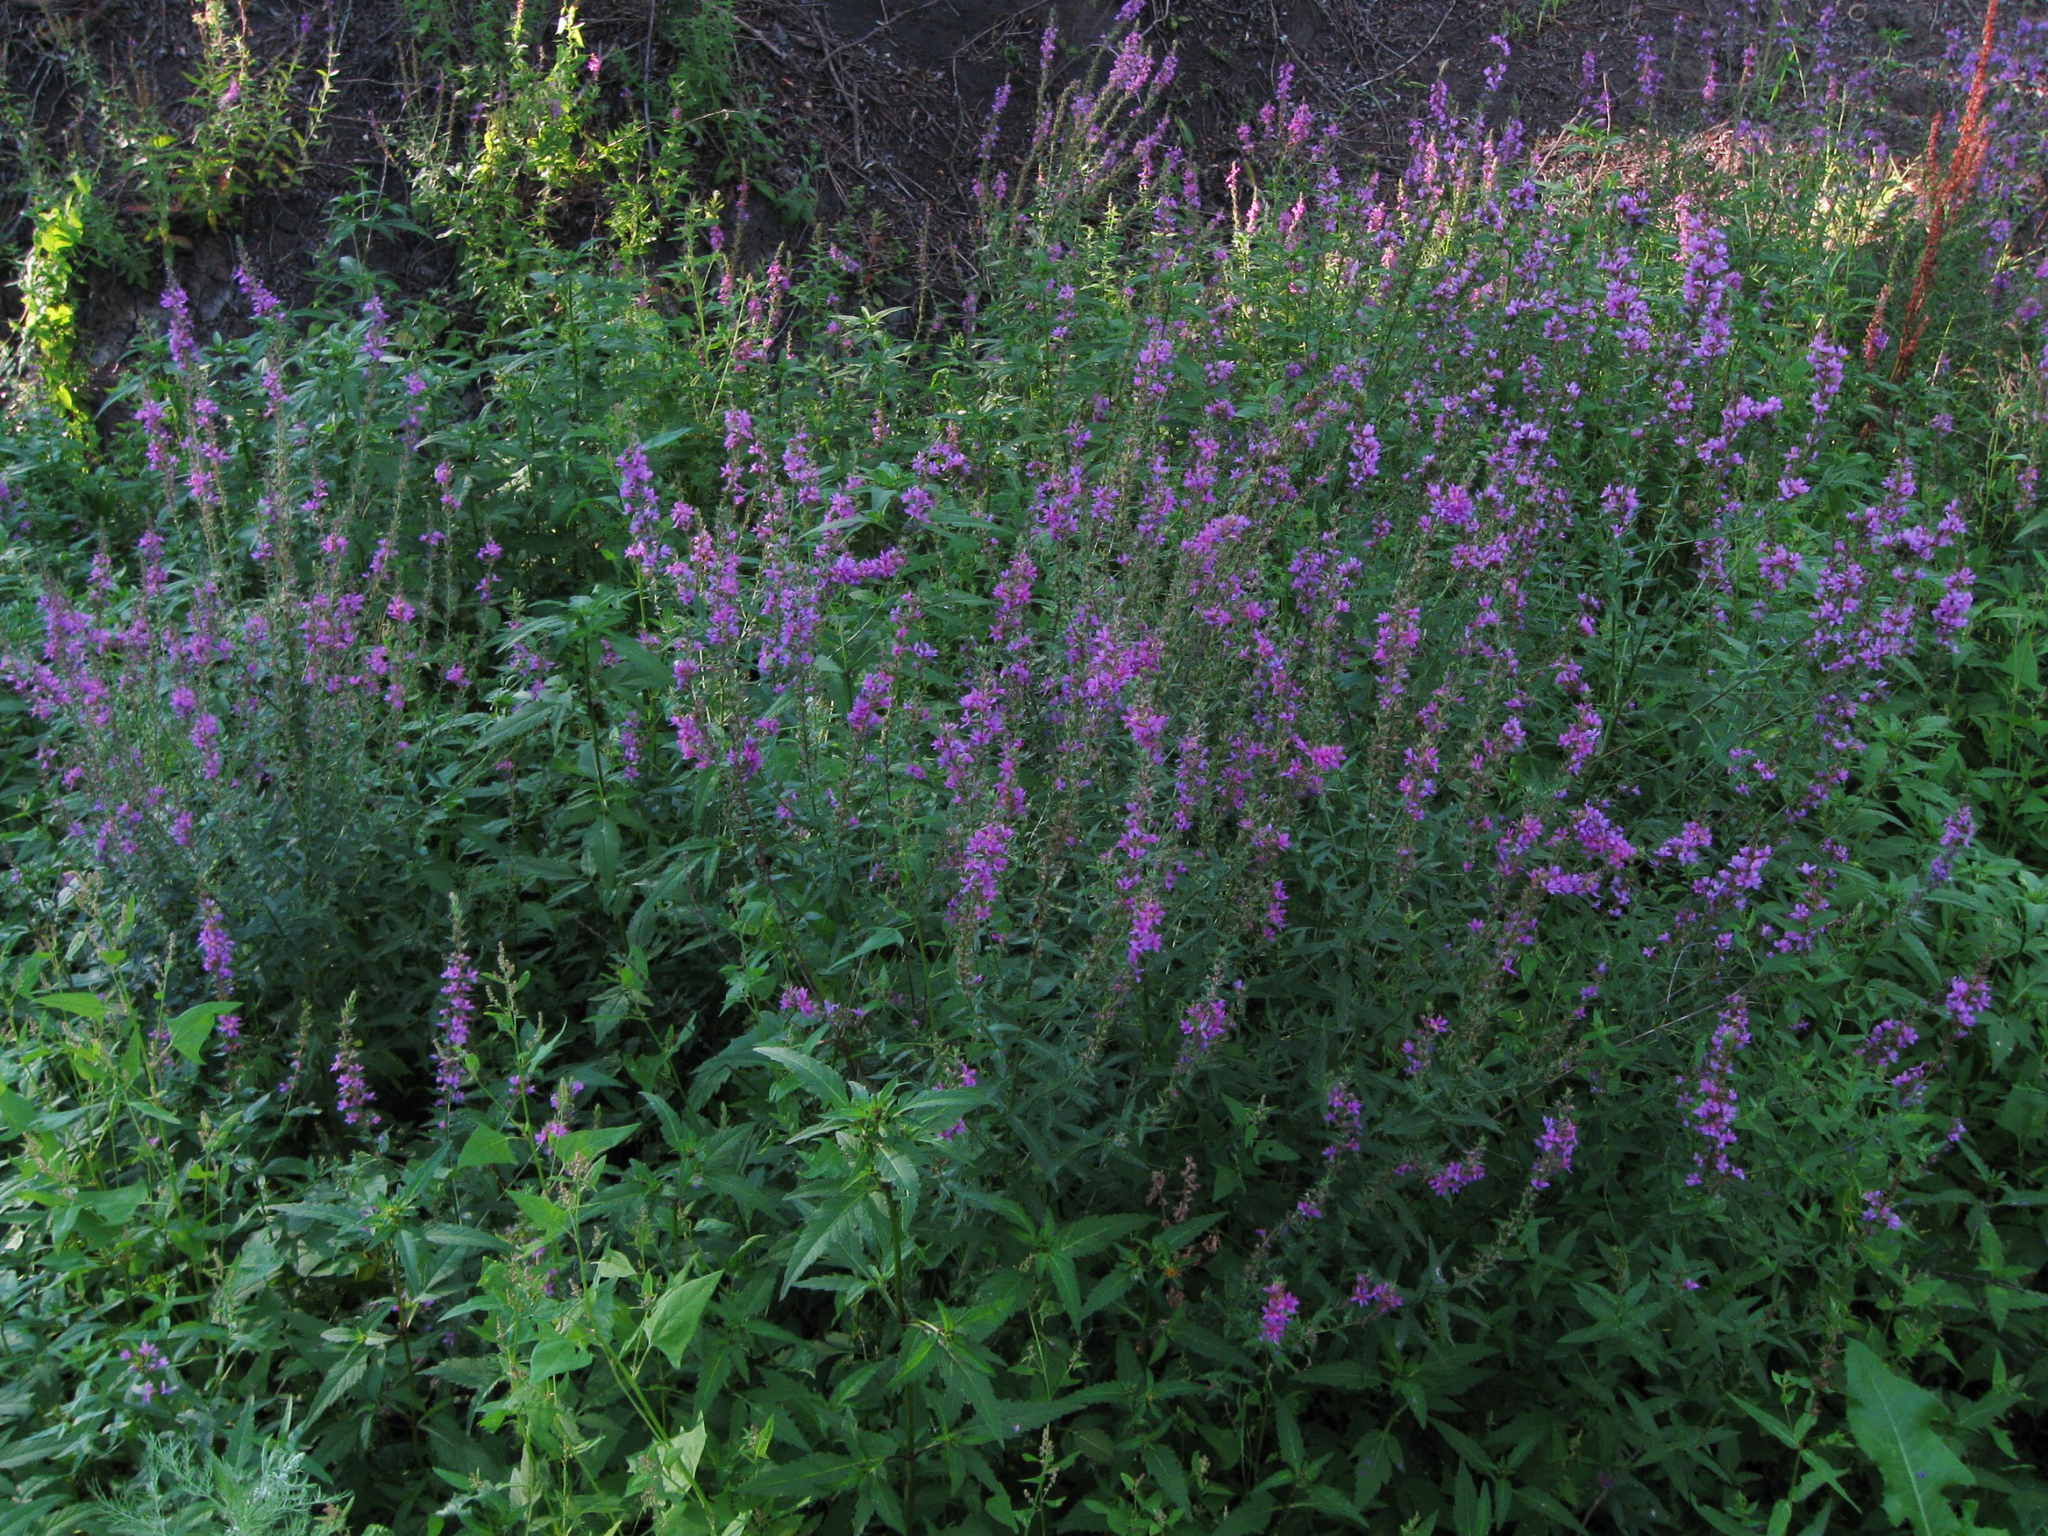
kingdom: Plantae
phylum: Tracheophyta
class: Magnoliopsida
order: Myrtales
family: Lythraceae
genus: Lythrum
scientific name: Lythrum salicaria
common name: Purple loosestrife
